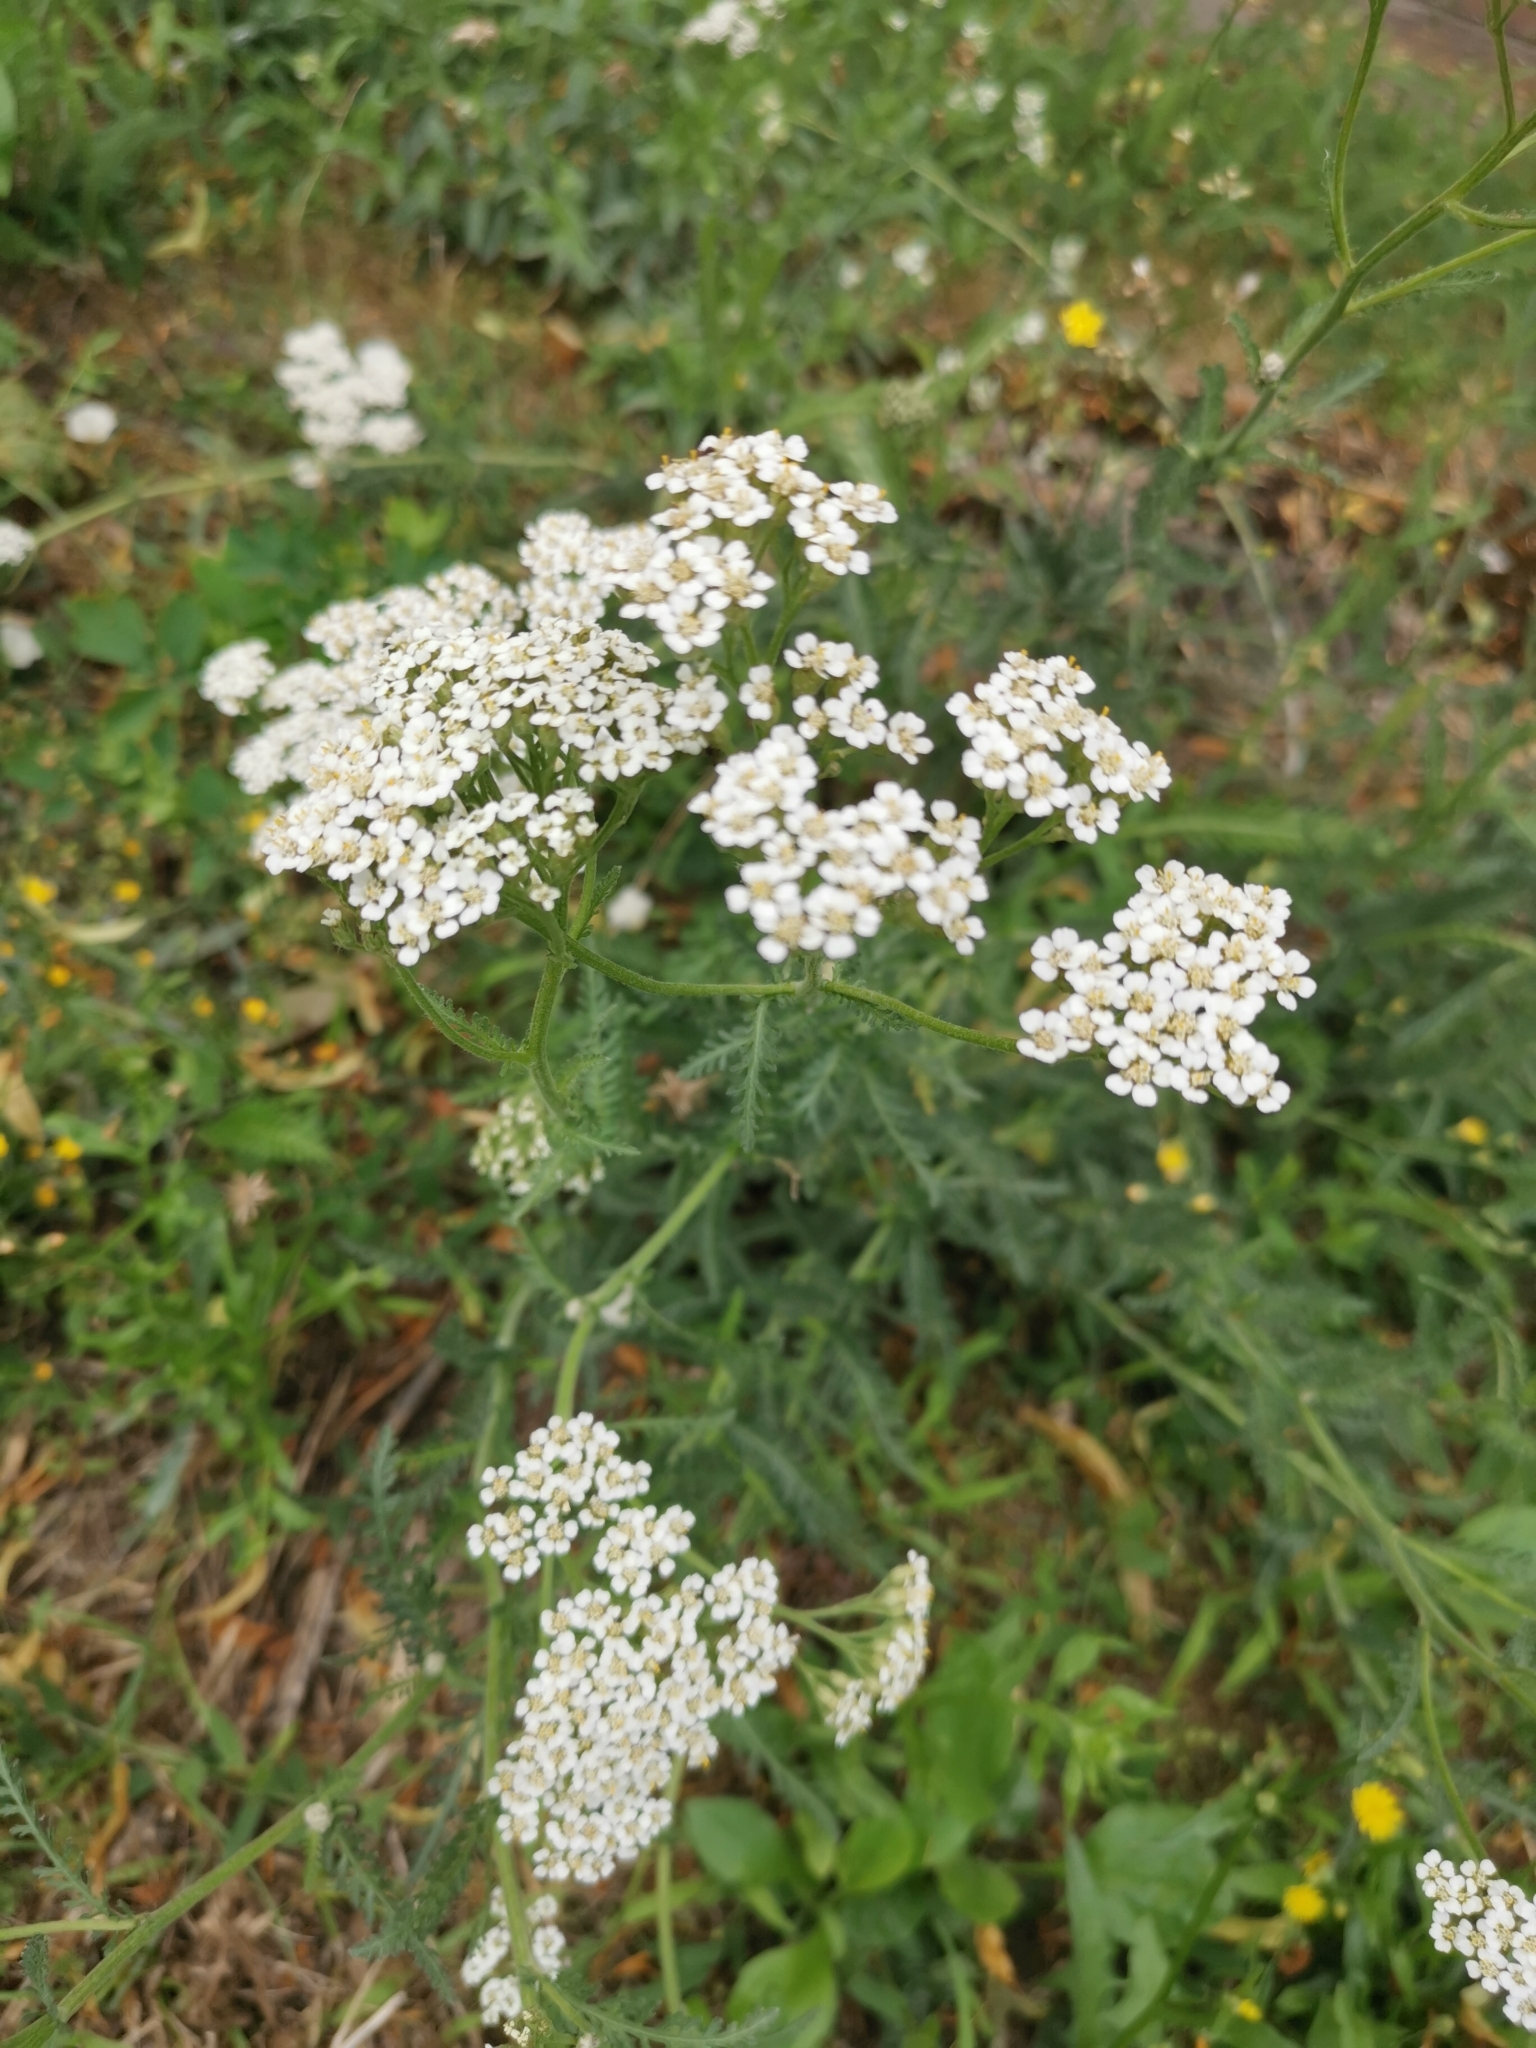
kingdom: Plantae
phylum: Tracheophyta
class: Magnoliopsida
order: Asterales
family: Asteraceae
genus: Achillea
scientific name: Achillea millefolium
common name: Yarrow
